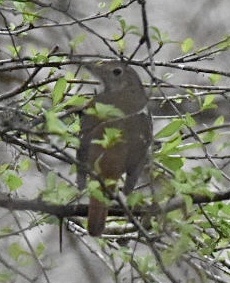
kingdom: Animalia
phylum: Chordata
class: Aves
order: Passeriformes
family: Turdidae
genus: Catharus
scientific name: Catharus guttatus
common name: Hermit thrush
